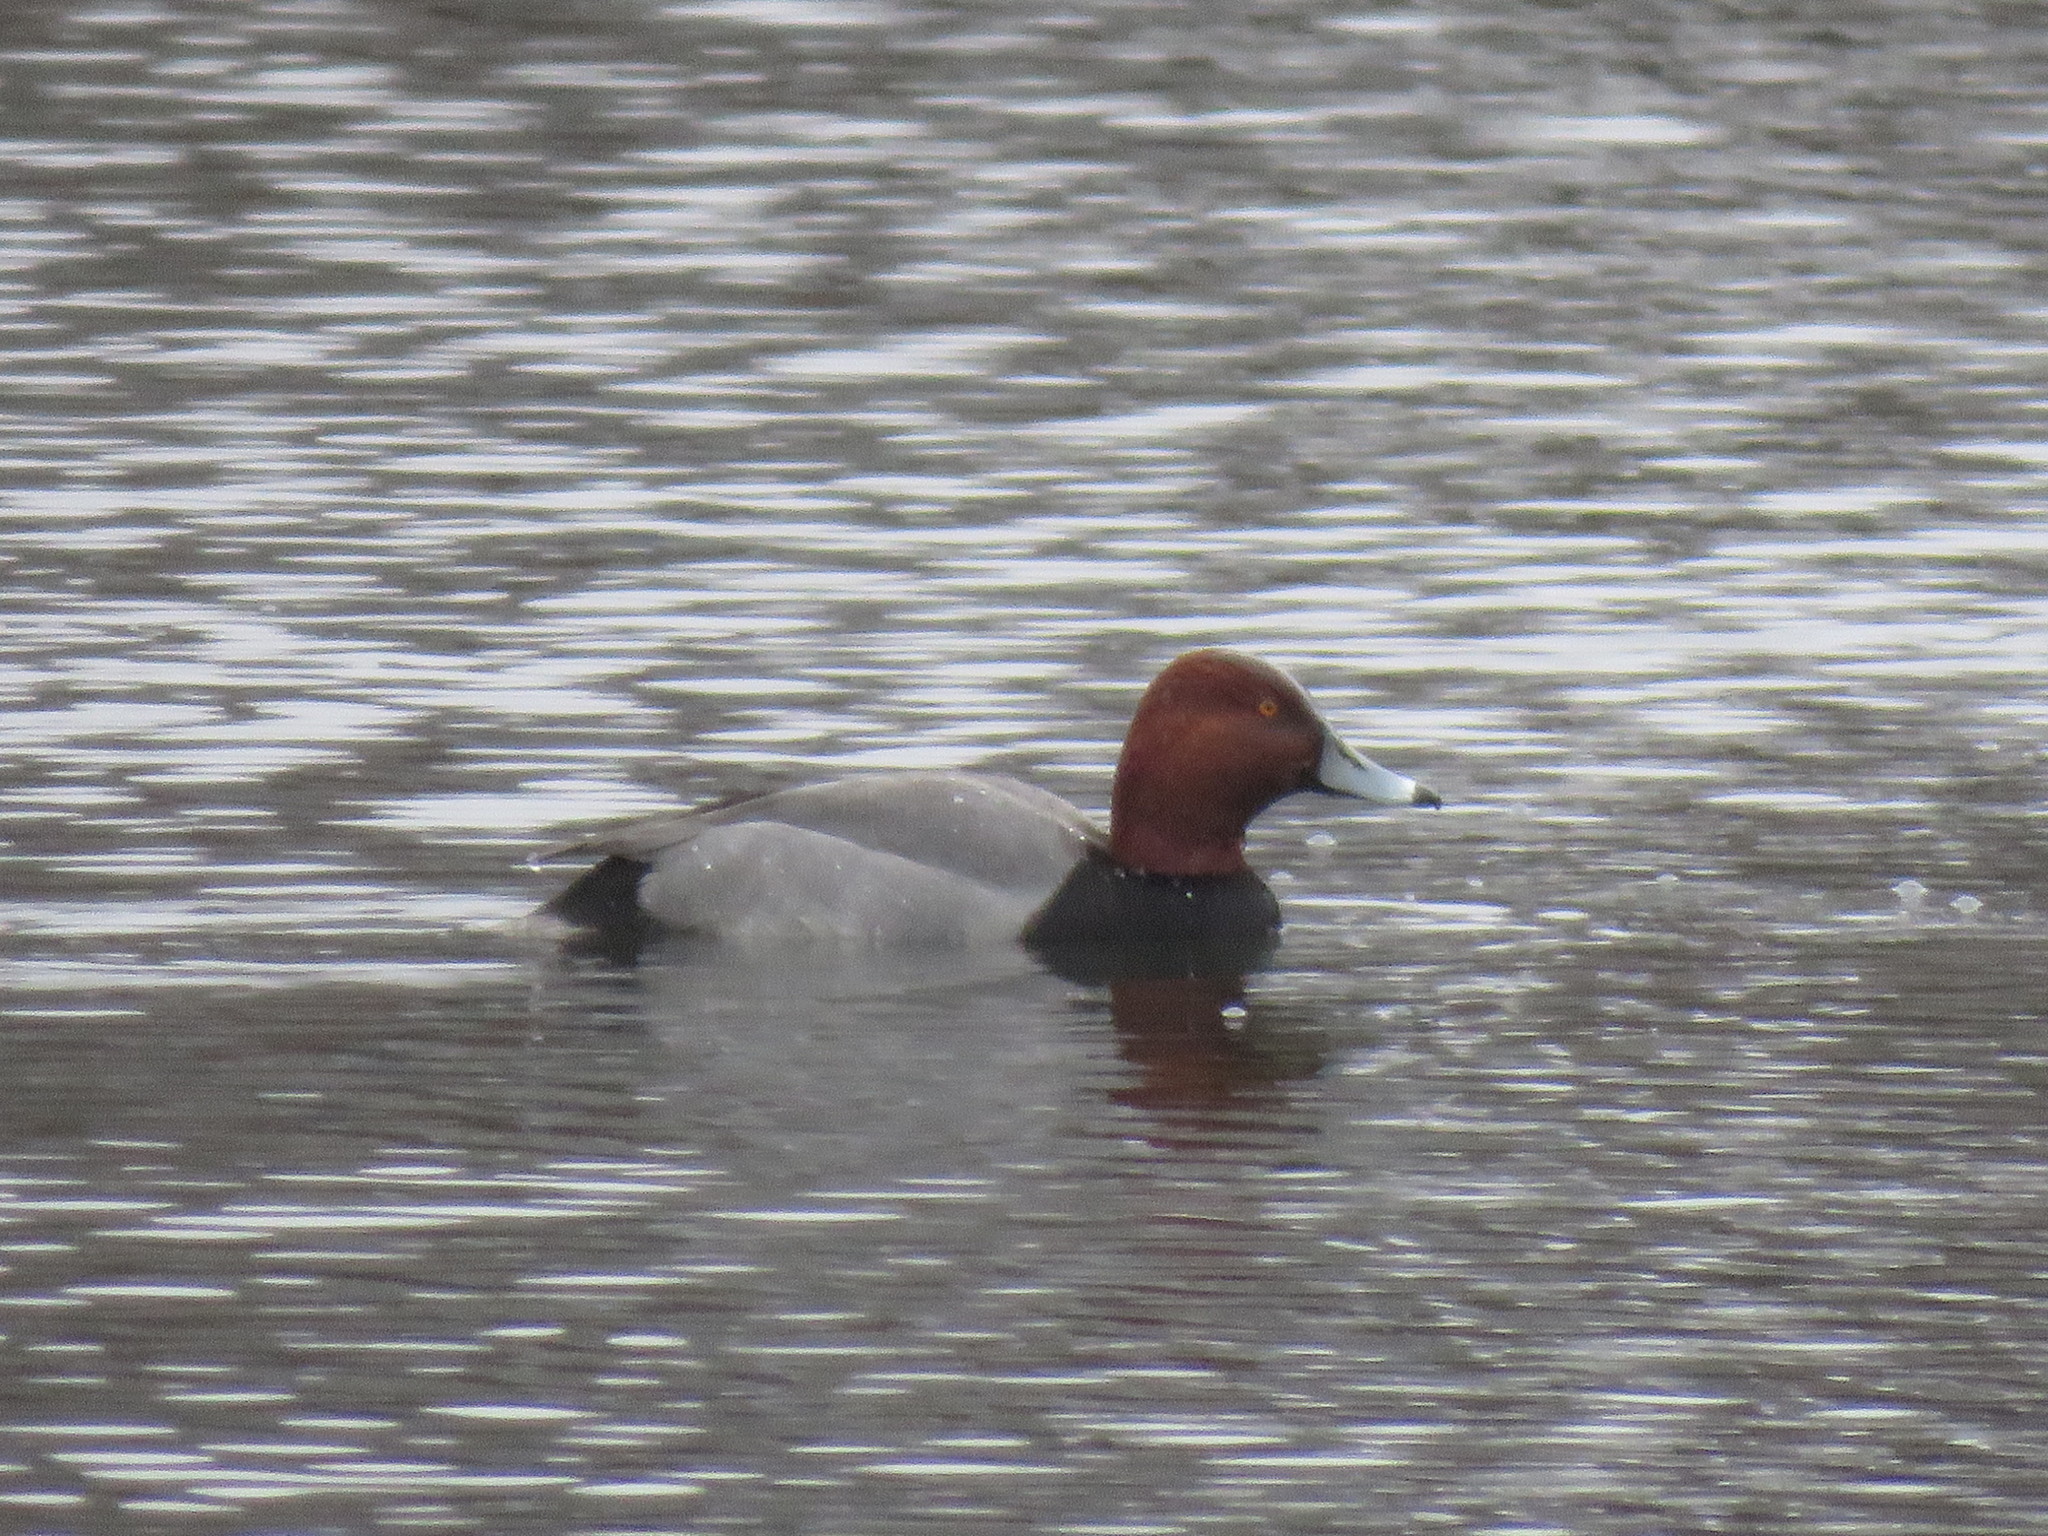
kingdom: Animalia
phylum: Chordata
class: Aves
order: Anseriformes
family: Anatidae
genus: Aythya
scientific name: Aythya americana
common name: Redhead
